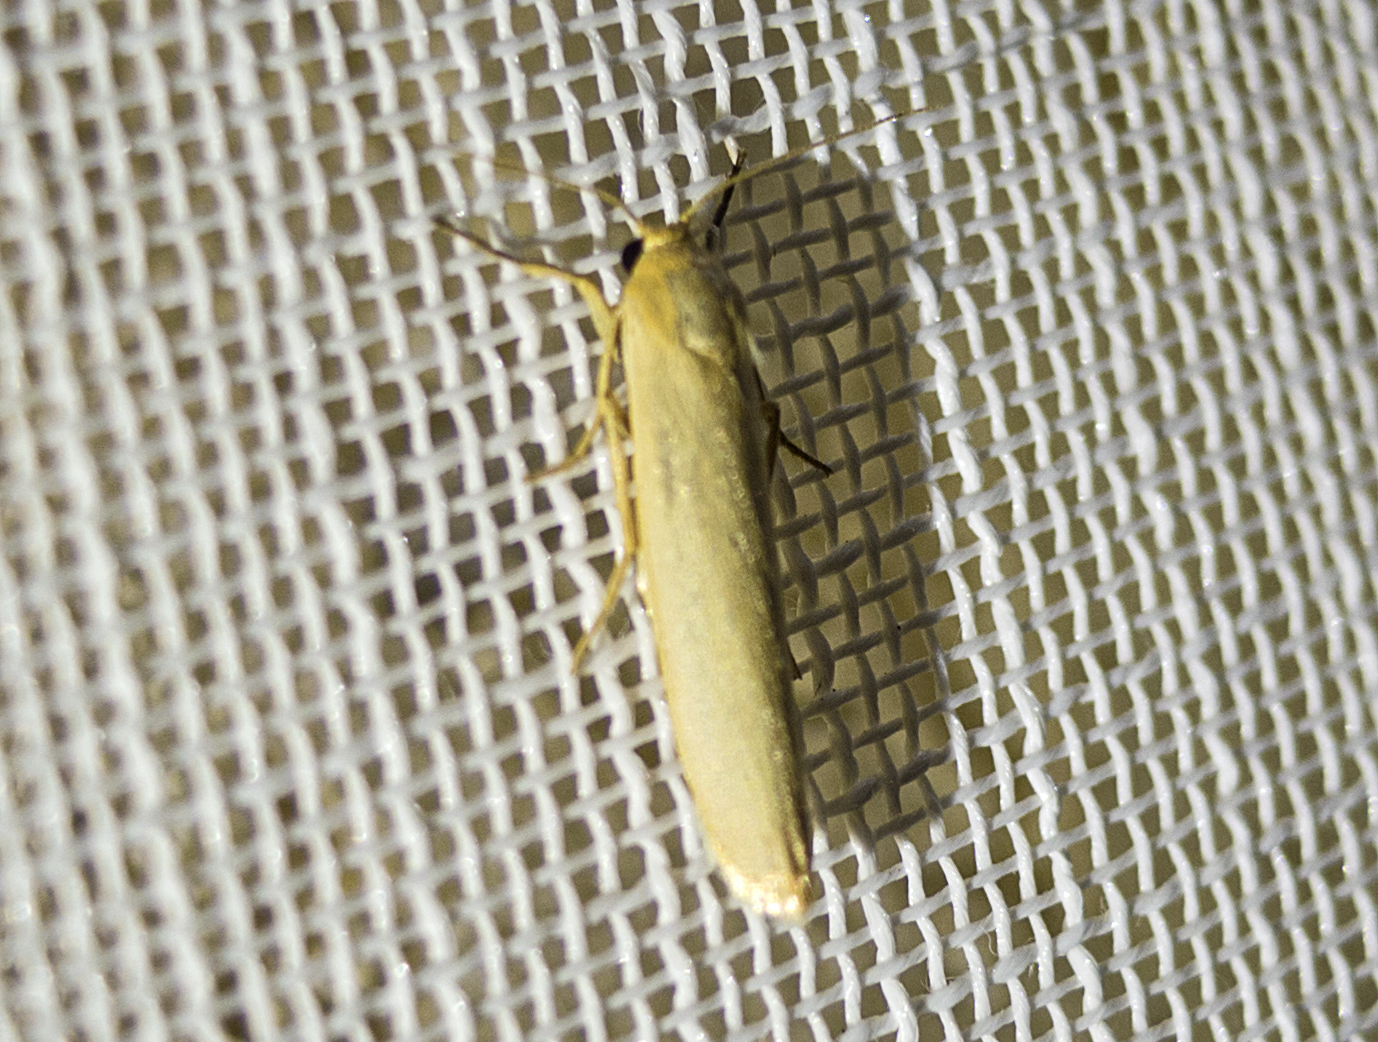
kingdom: Animalia
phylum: Arthropoda
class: Insecta
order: Lepidoptera
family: Erebidae
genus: Eilema
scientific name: Eilema
